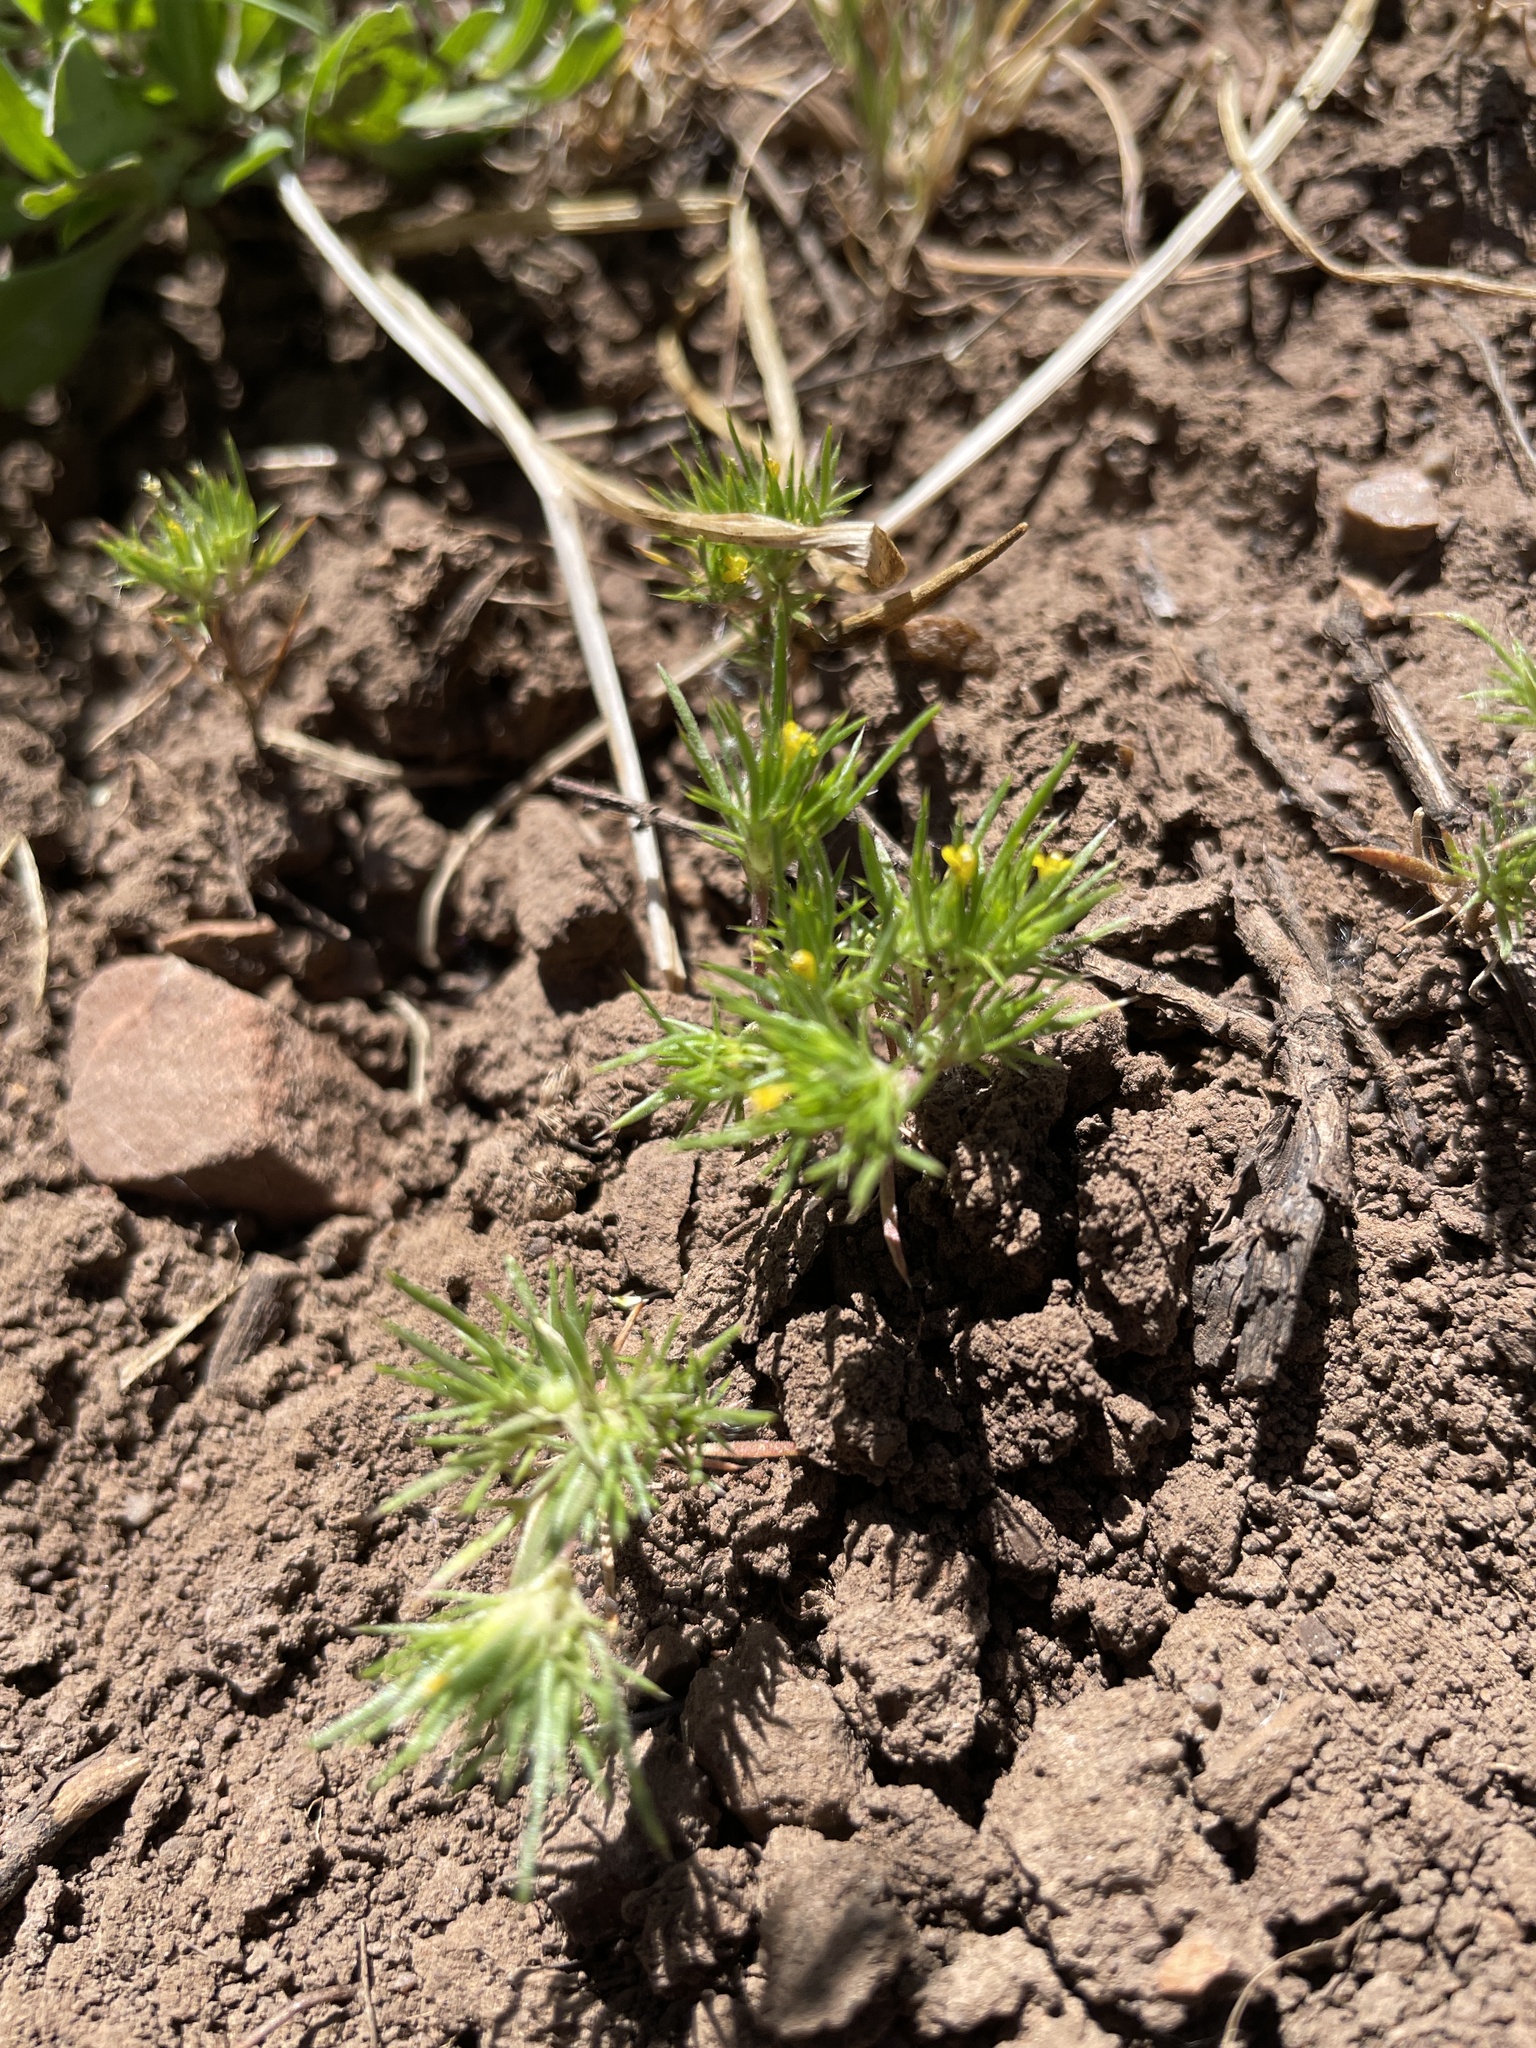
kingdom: Plantae
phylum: Tracheophyta
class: Magnoliopsida
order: Ericales
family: Polemoniaceae
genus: Navarretia
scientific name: Navarretia breweri
